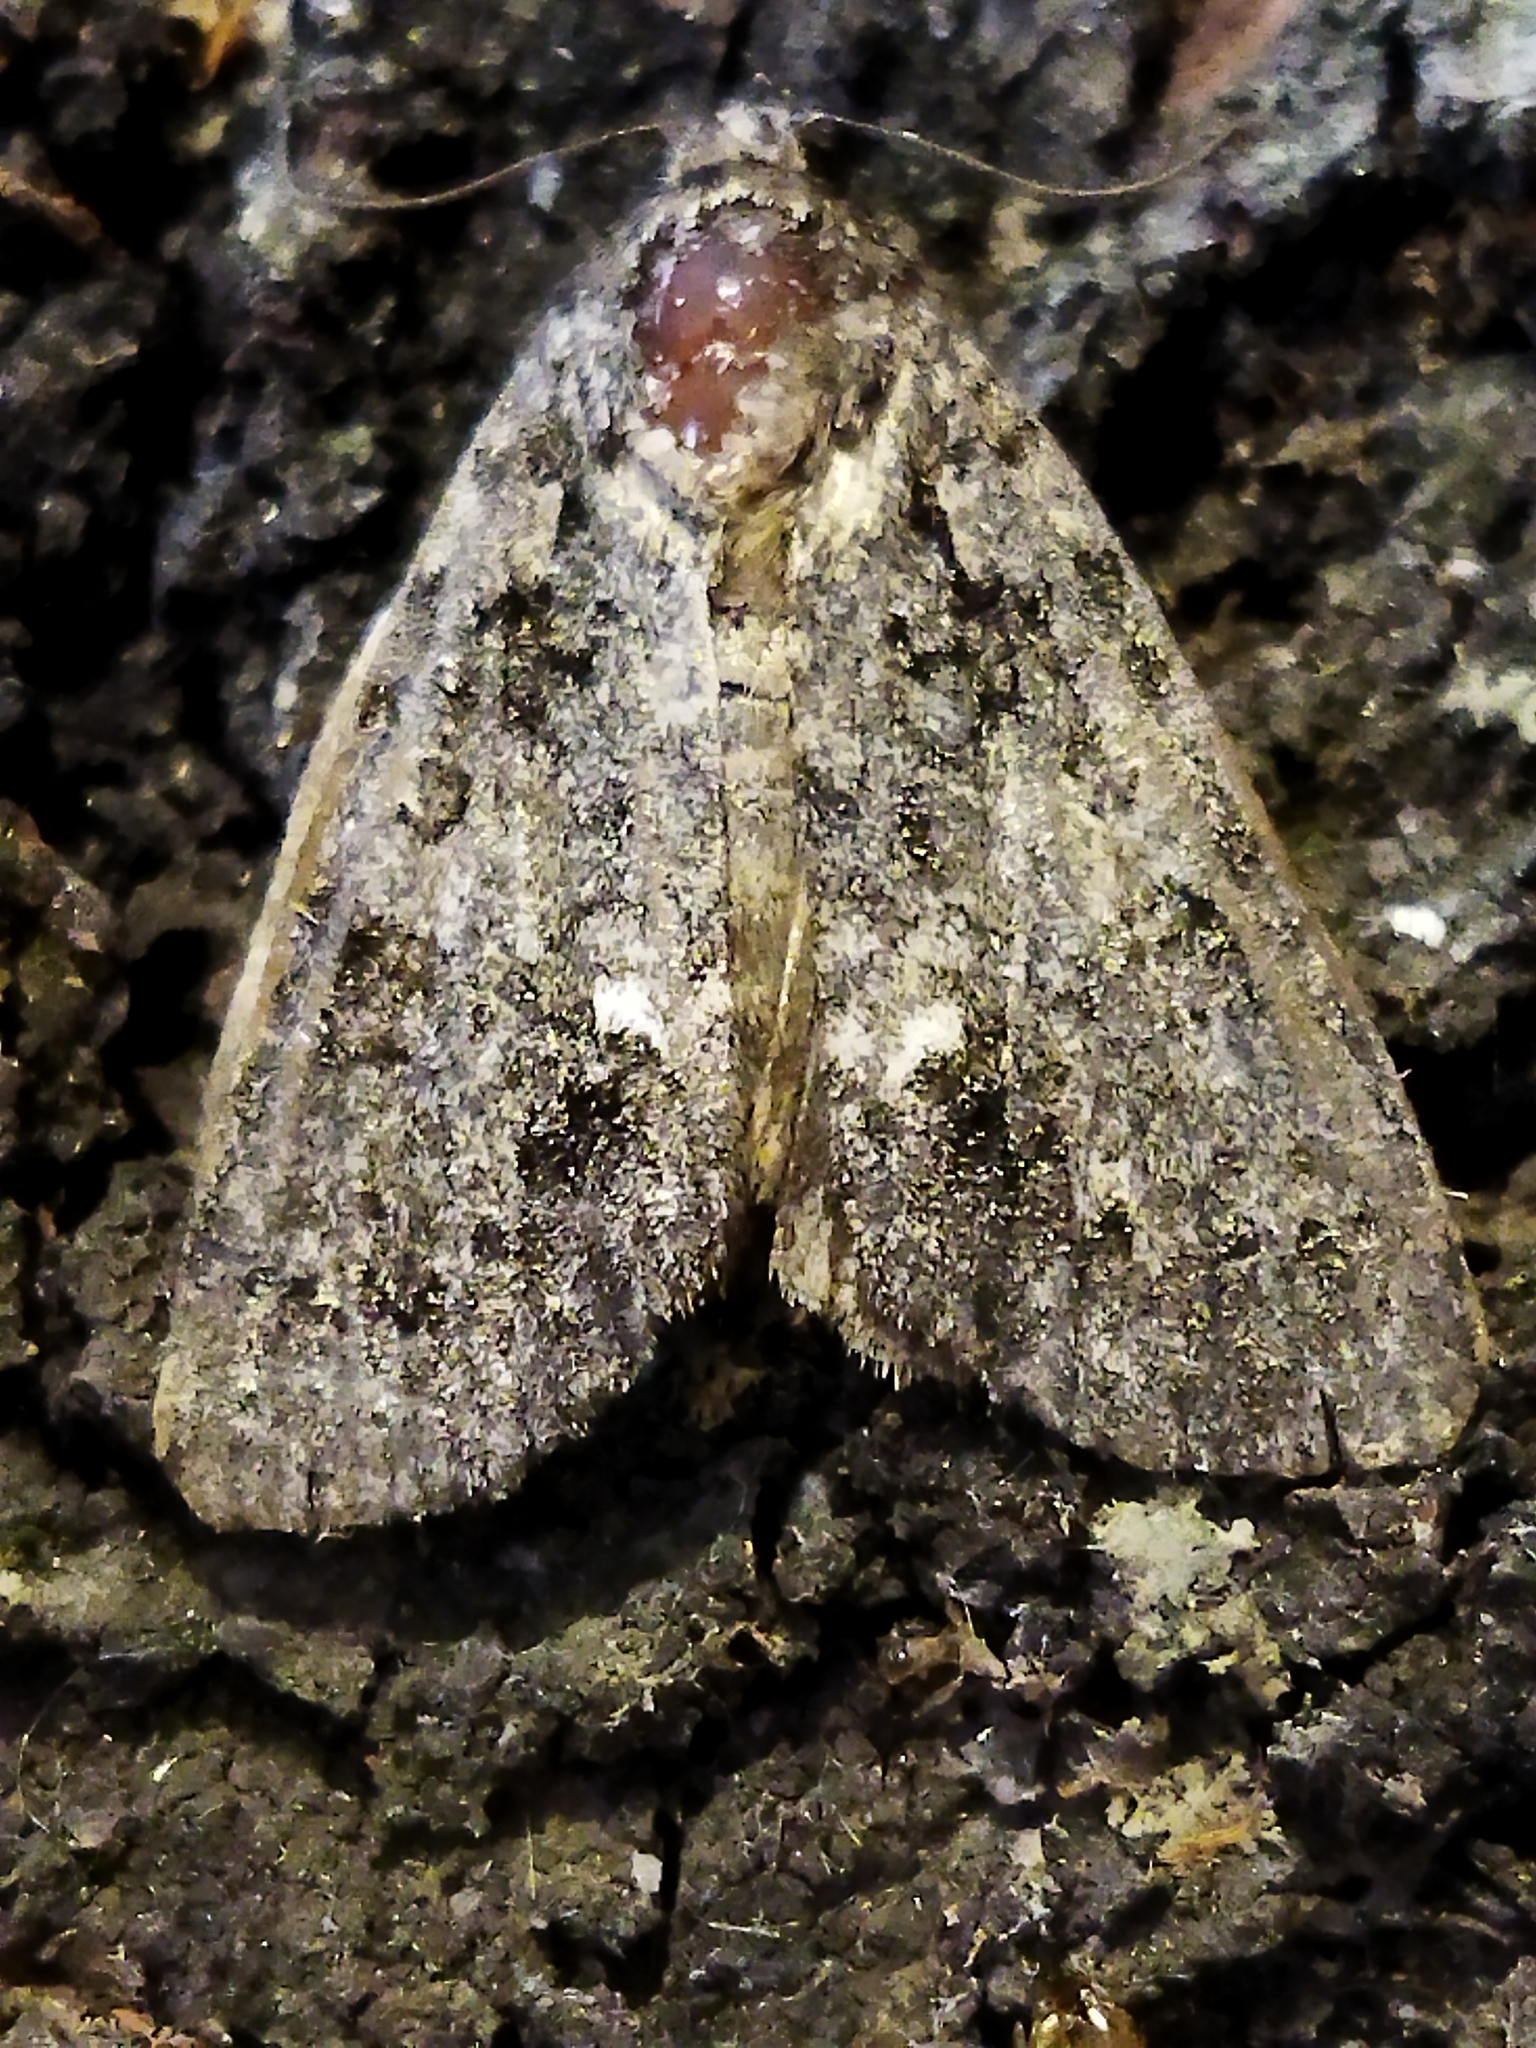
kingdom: Animalia
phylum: Arthropoda
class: Insecta
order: Lepidoptera
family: Noctuidae
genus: Acronicta
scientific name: Acronicta rumicis
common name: Knot grass
